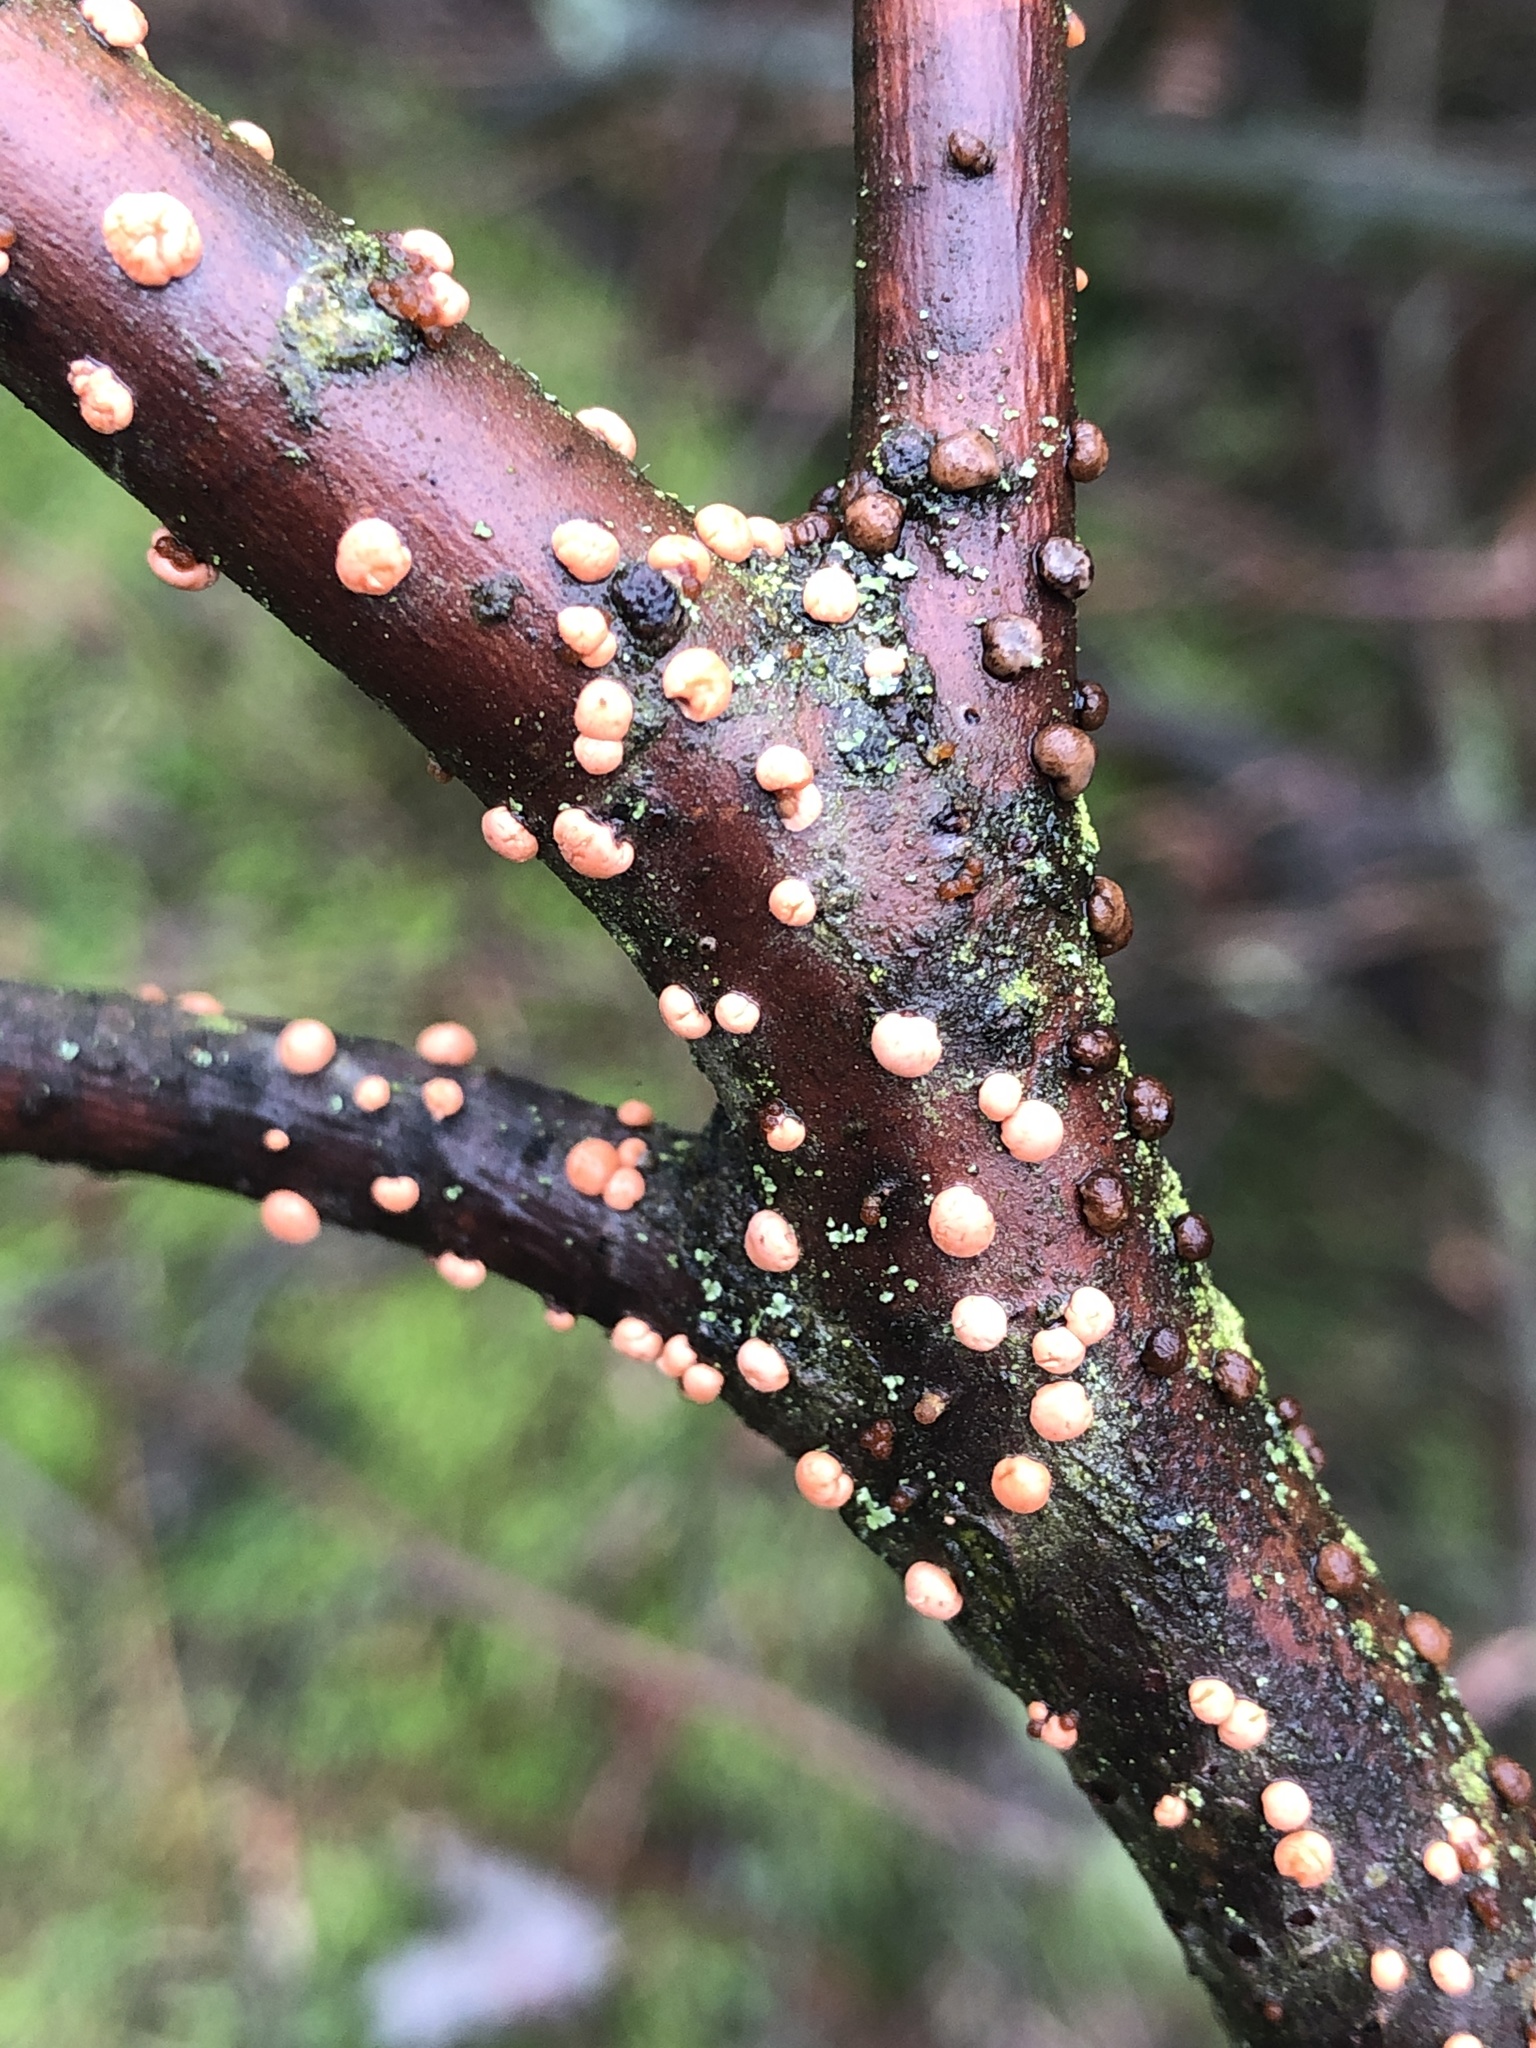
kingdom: Fungi
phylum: Ascomycota
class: Sordariomycetes
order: Hypocreales
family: Nectriaceae
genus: Nectria
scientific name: Nectria cinnabarina
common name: Coral spot
